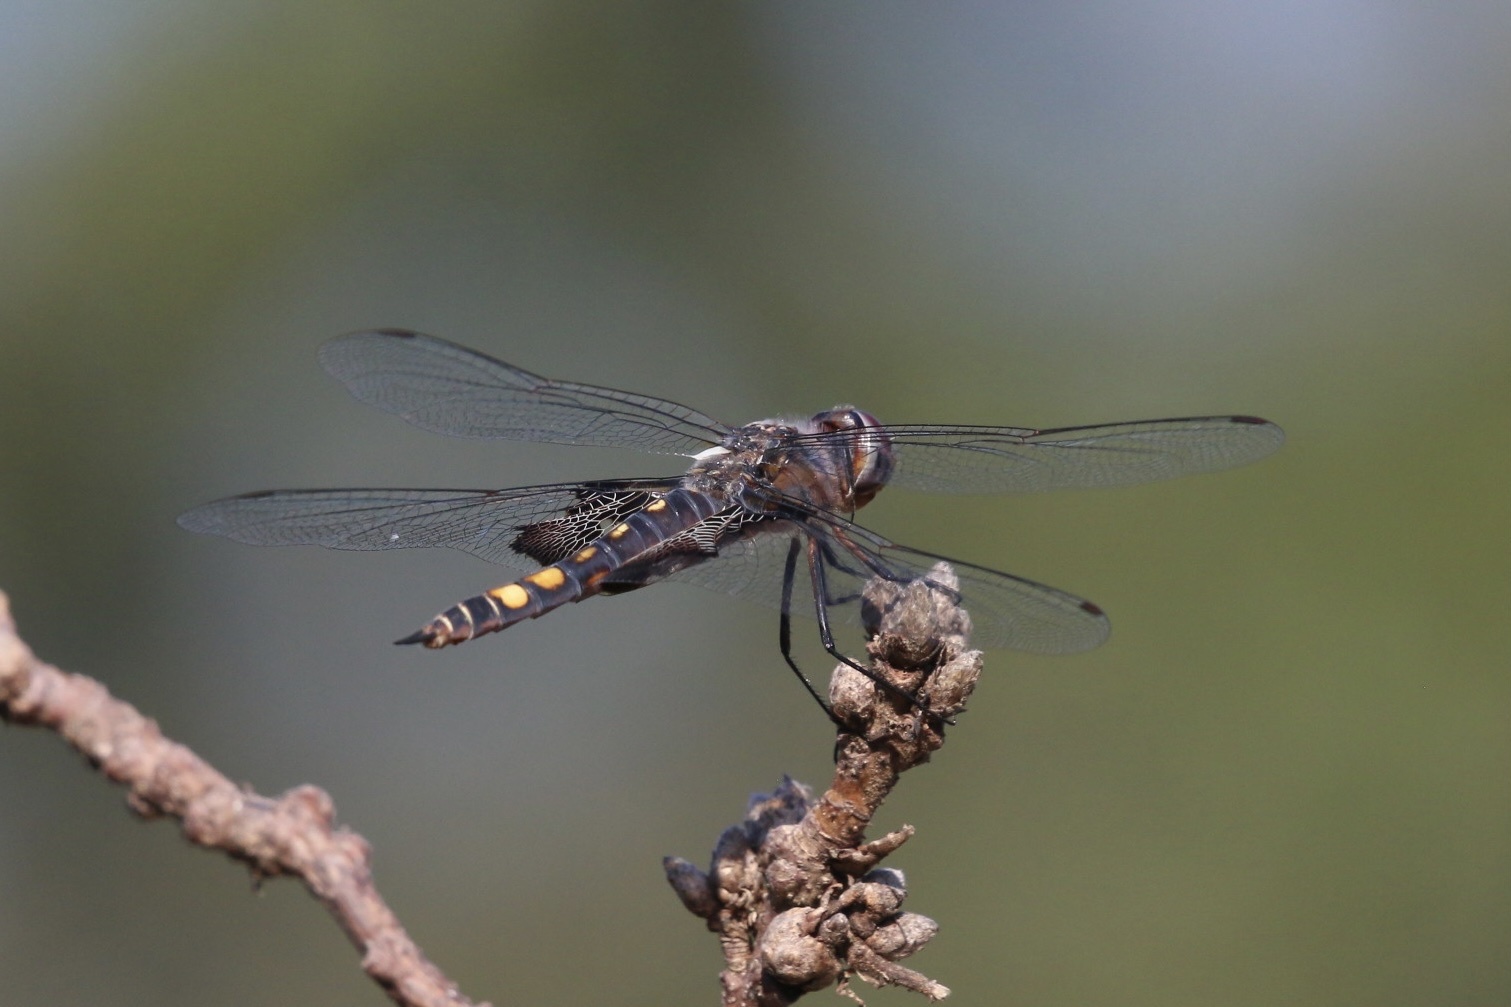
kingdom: Animalia
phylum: Arthropoda
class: Insecta
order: Odonata
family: Libellulidae
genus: Tramea
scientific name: Tramea lacerata
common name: Black saddlebags
